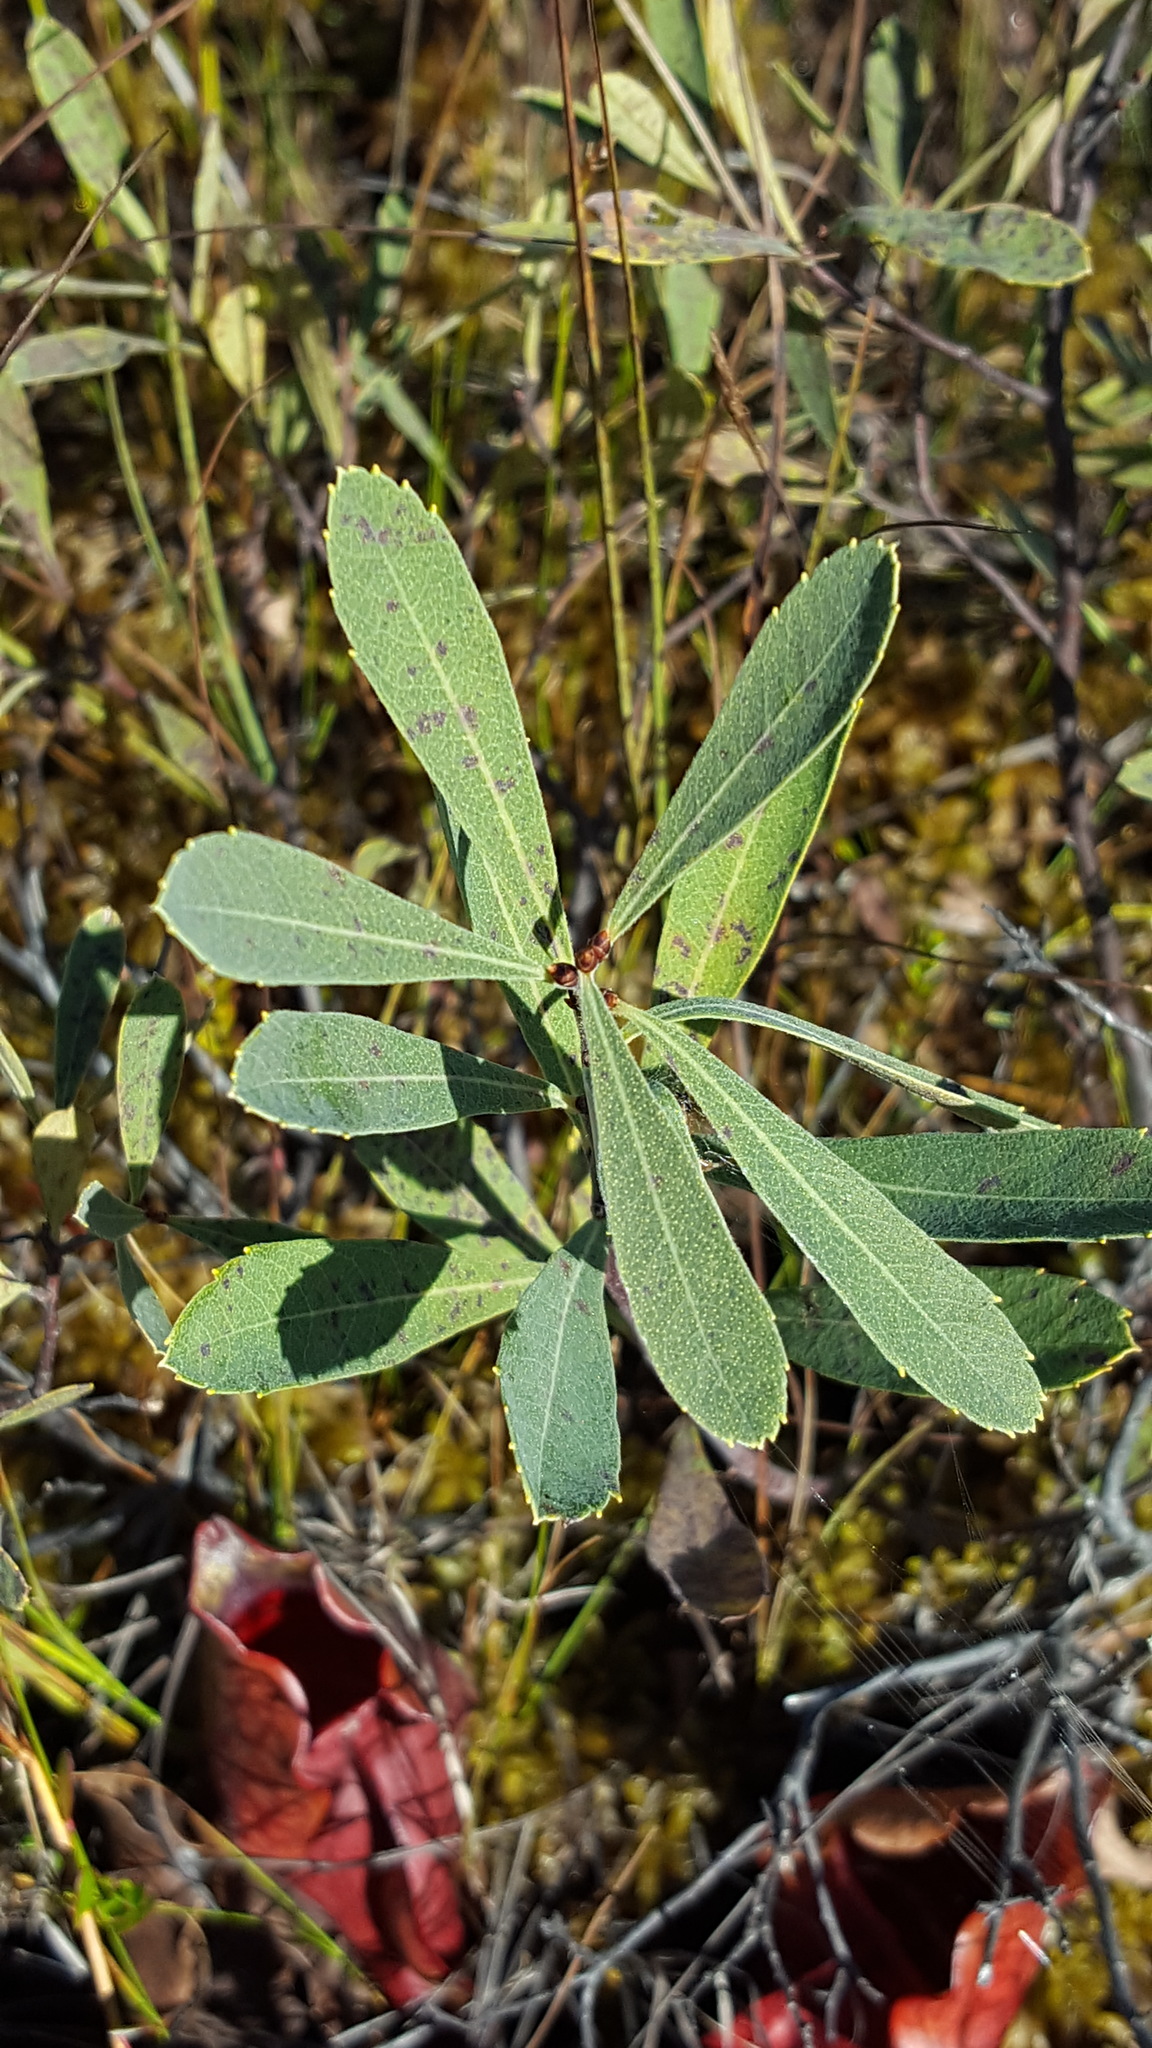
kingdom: Plantae
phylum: Tracheophyta
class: Magnoliopsida
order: Fagales
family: Myricaceae
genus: Myrica
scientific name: Myrica gale
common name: Sweet gale
